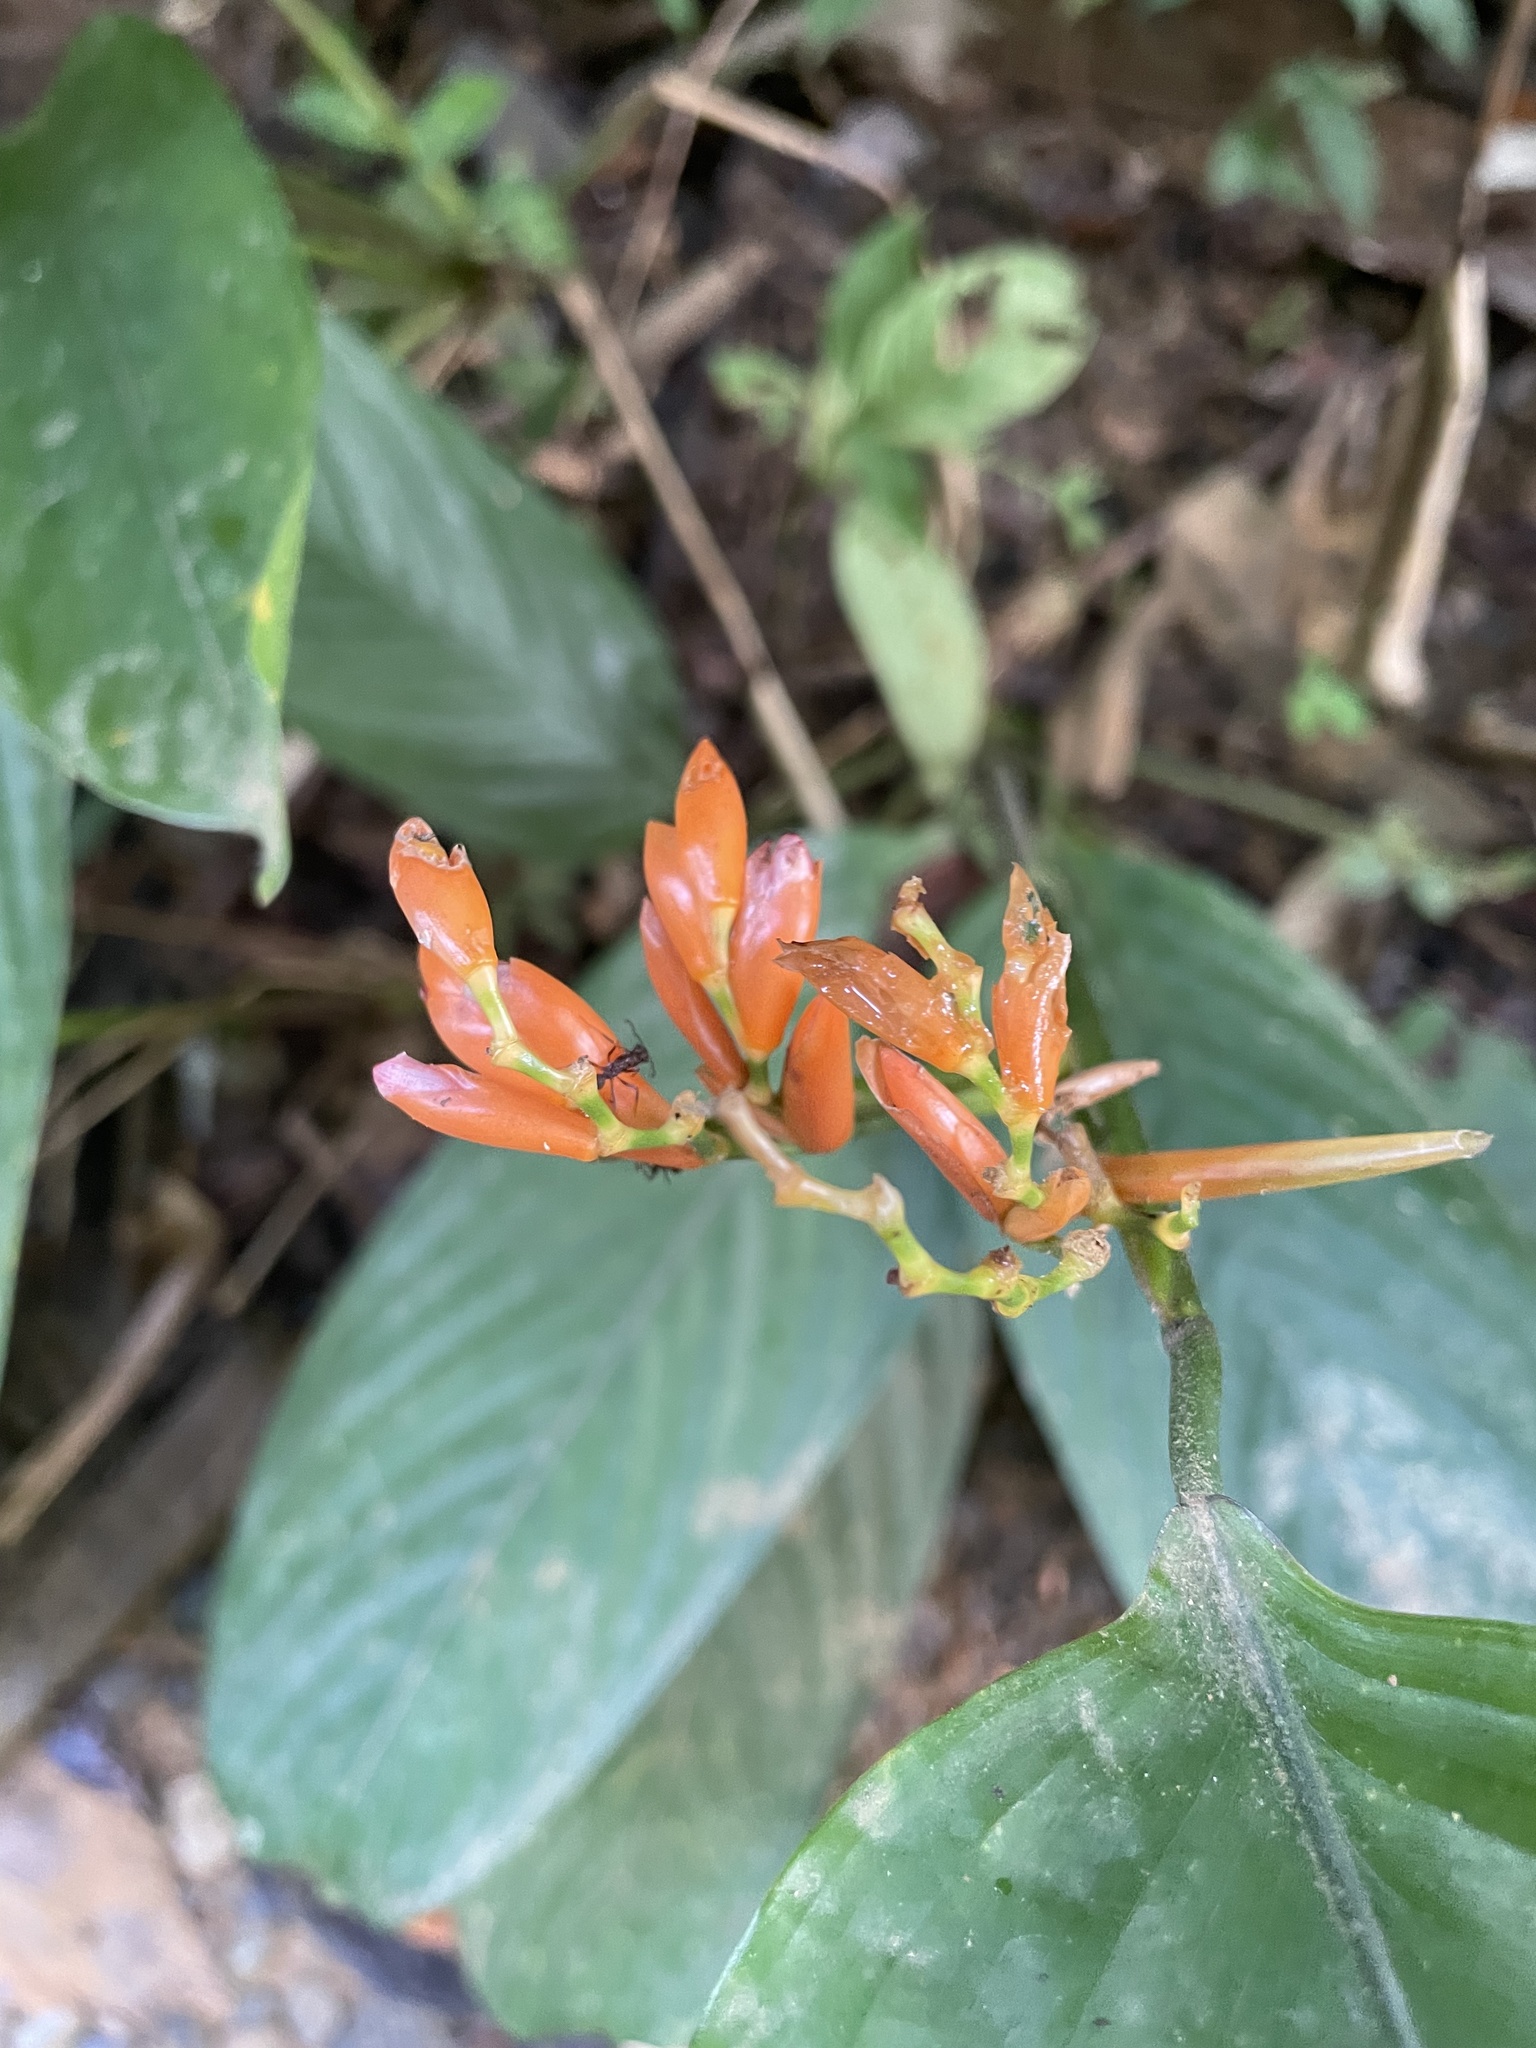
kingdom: Plantae
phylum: Tracheophyta
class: Liliopsida
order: Zingiberales
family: Marantaceae
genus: Stromanthe
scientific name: Stromanthe jacquinii
